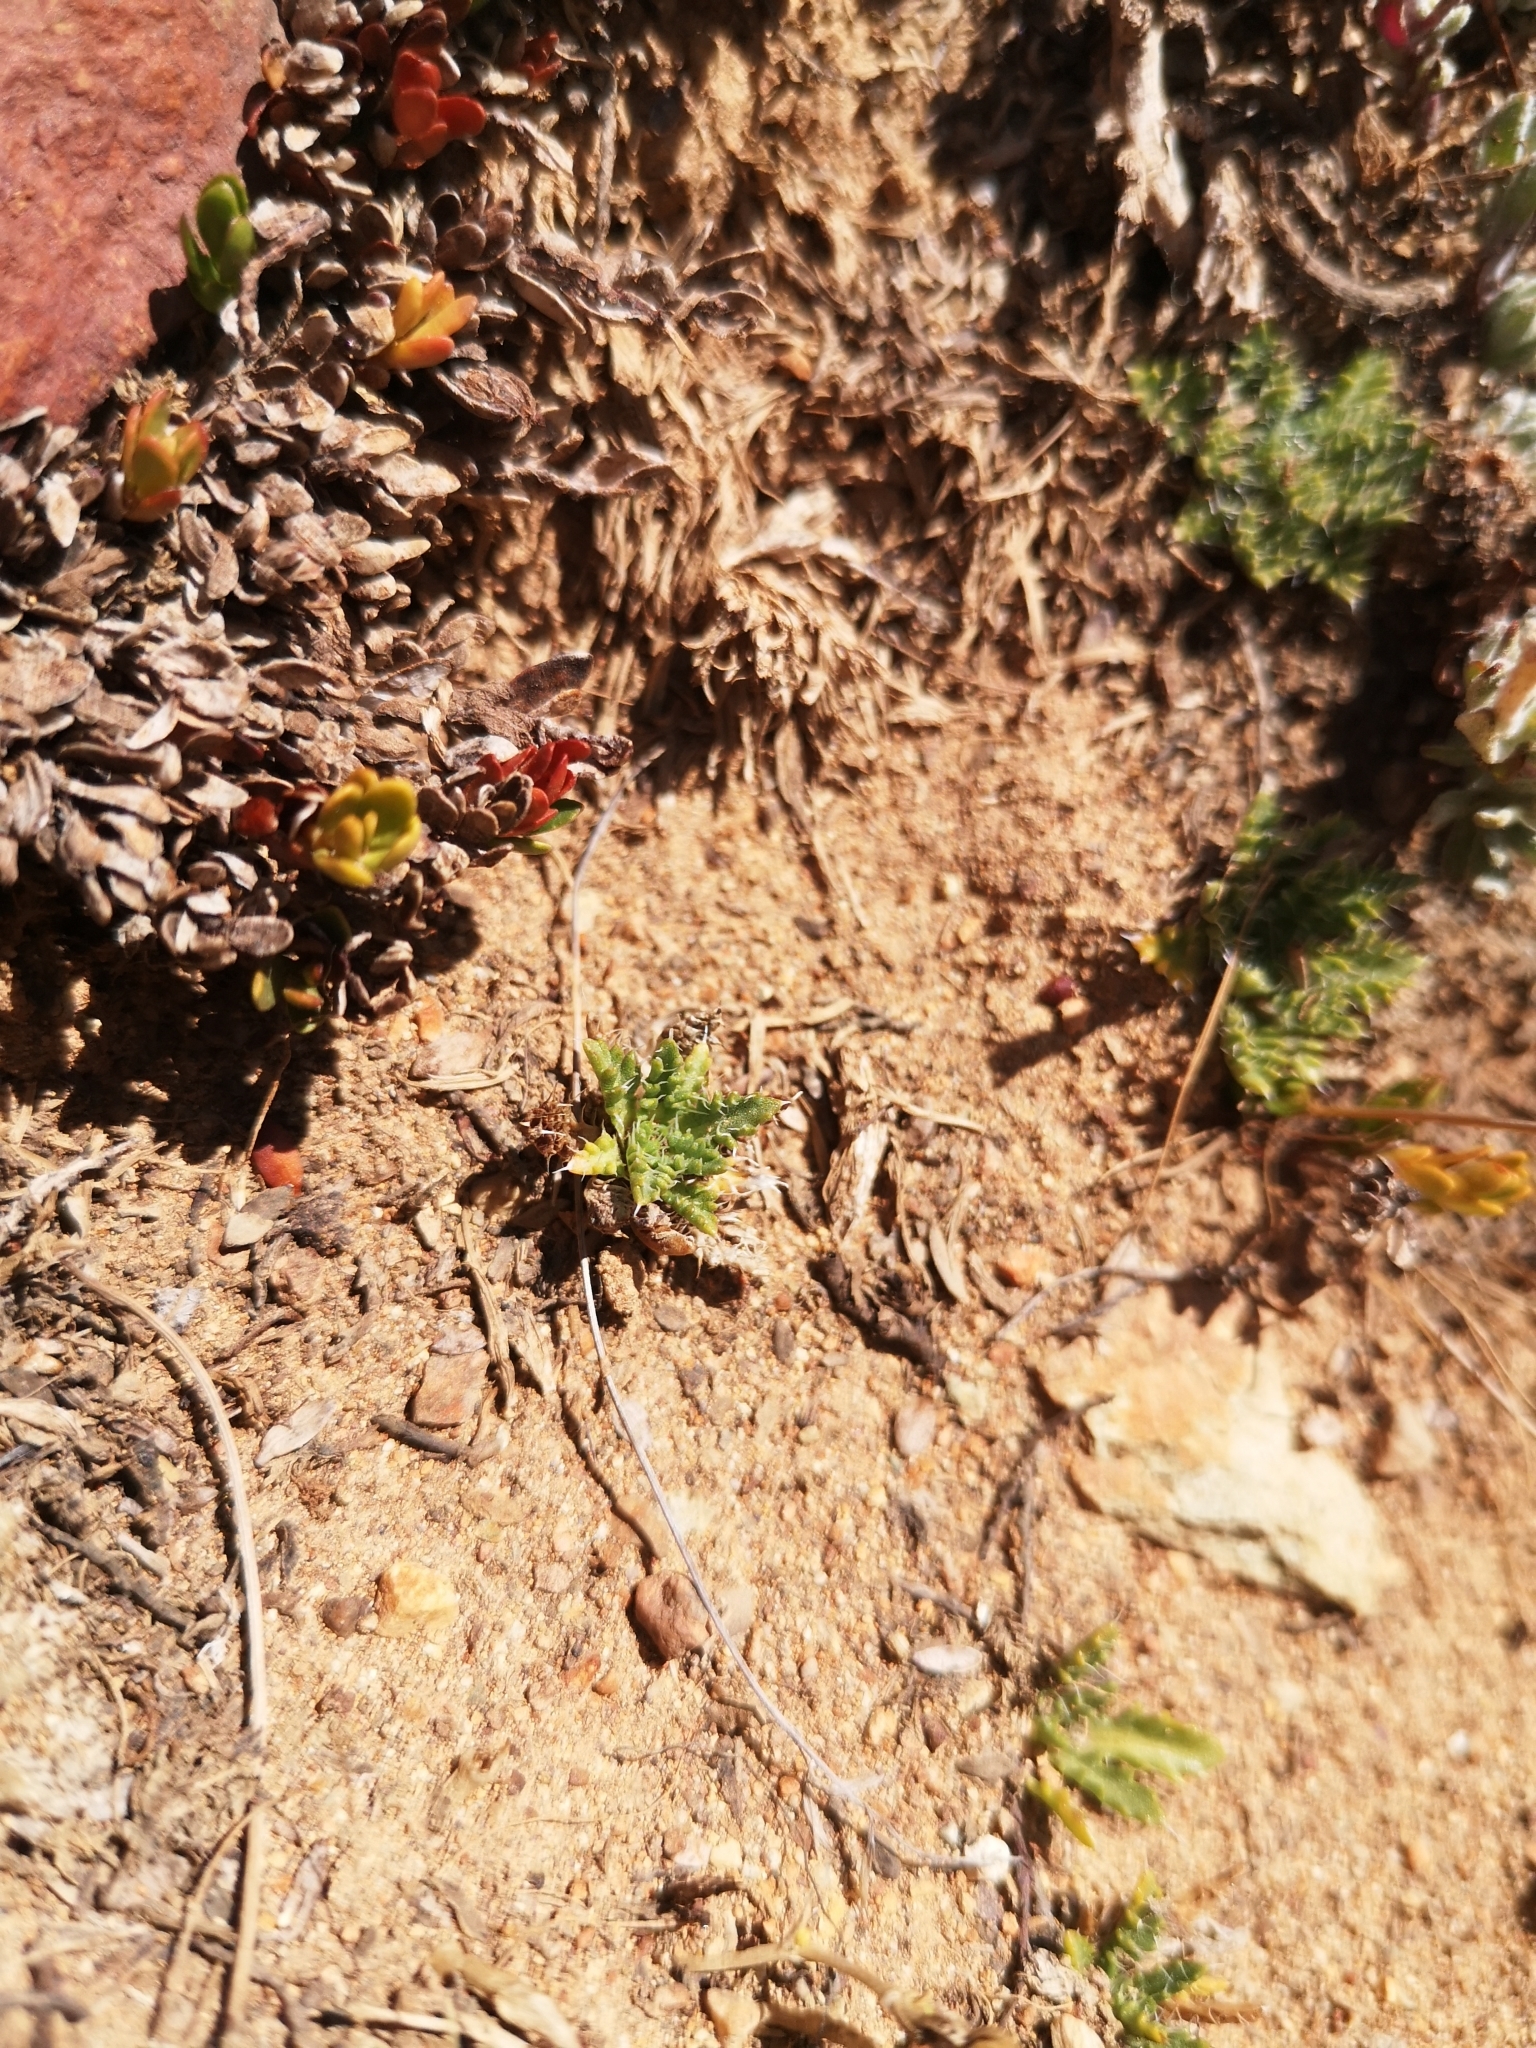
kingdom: Plantae
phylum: Tracheophyta
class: Magnoliopsida
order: Asterales
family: Asteraceae
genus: Perezia
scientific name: Perezia pilifera
